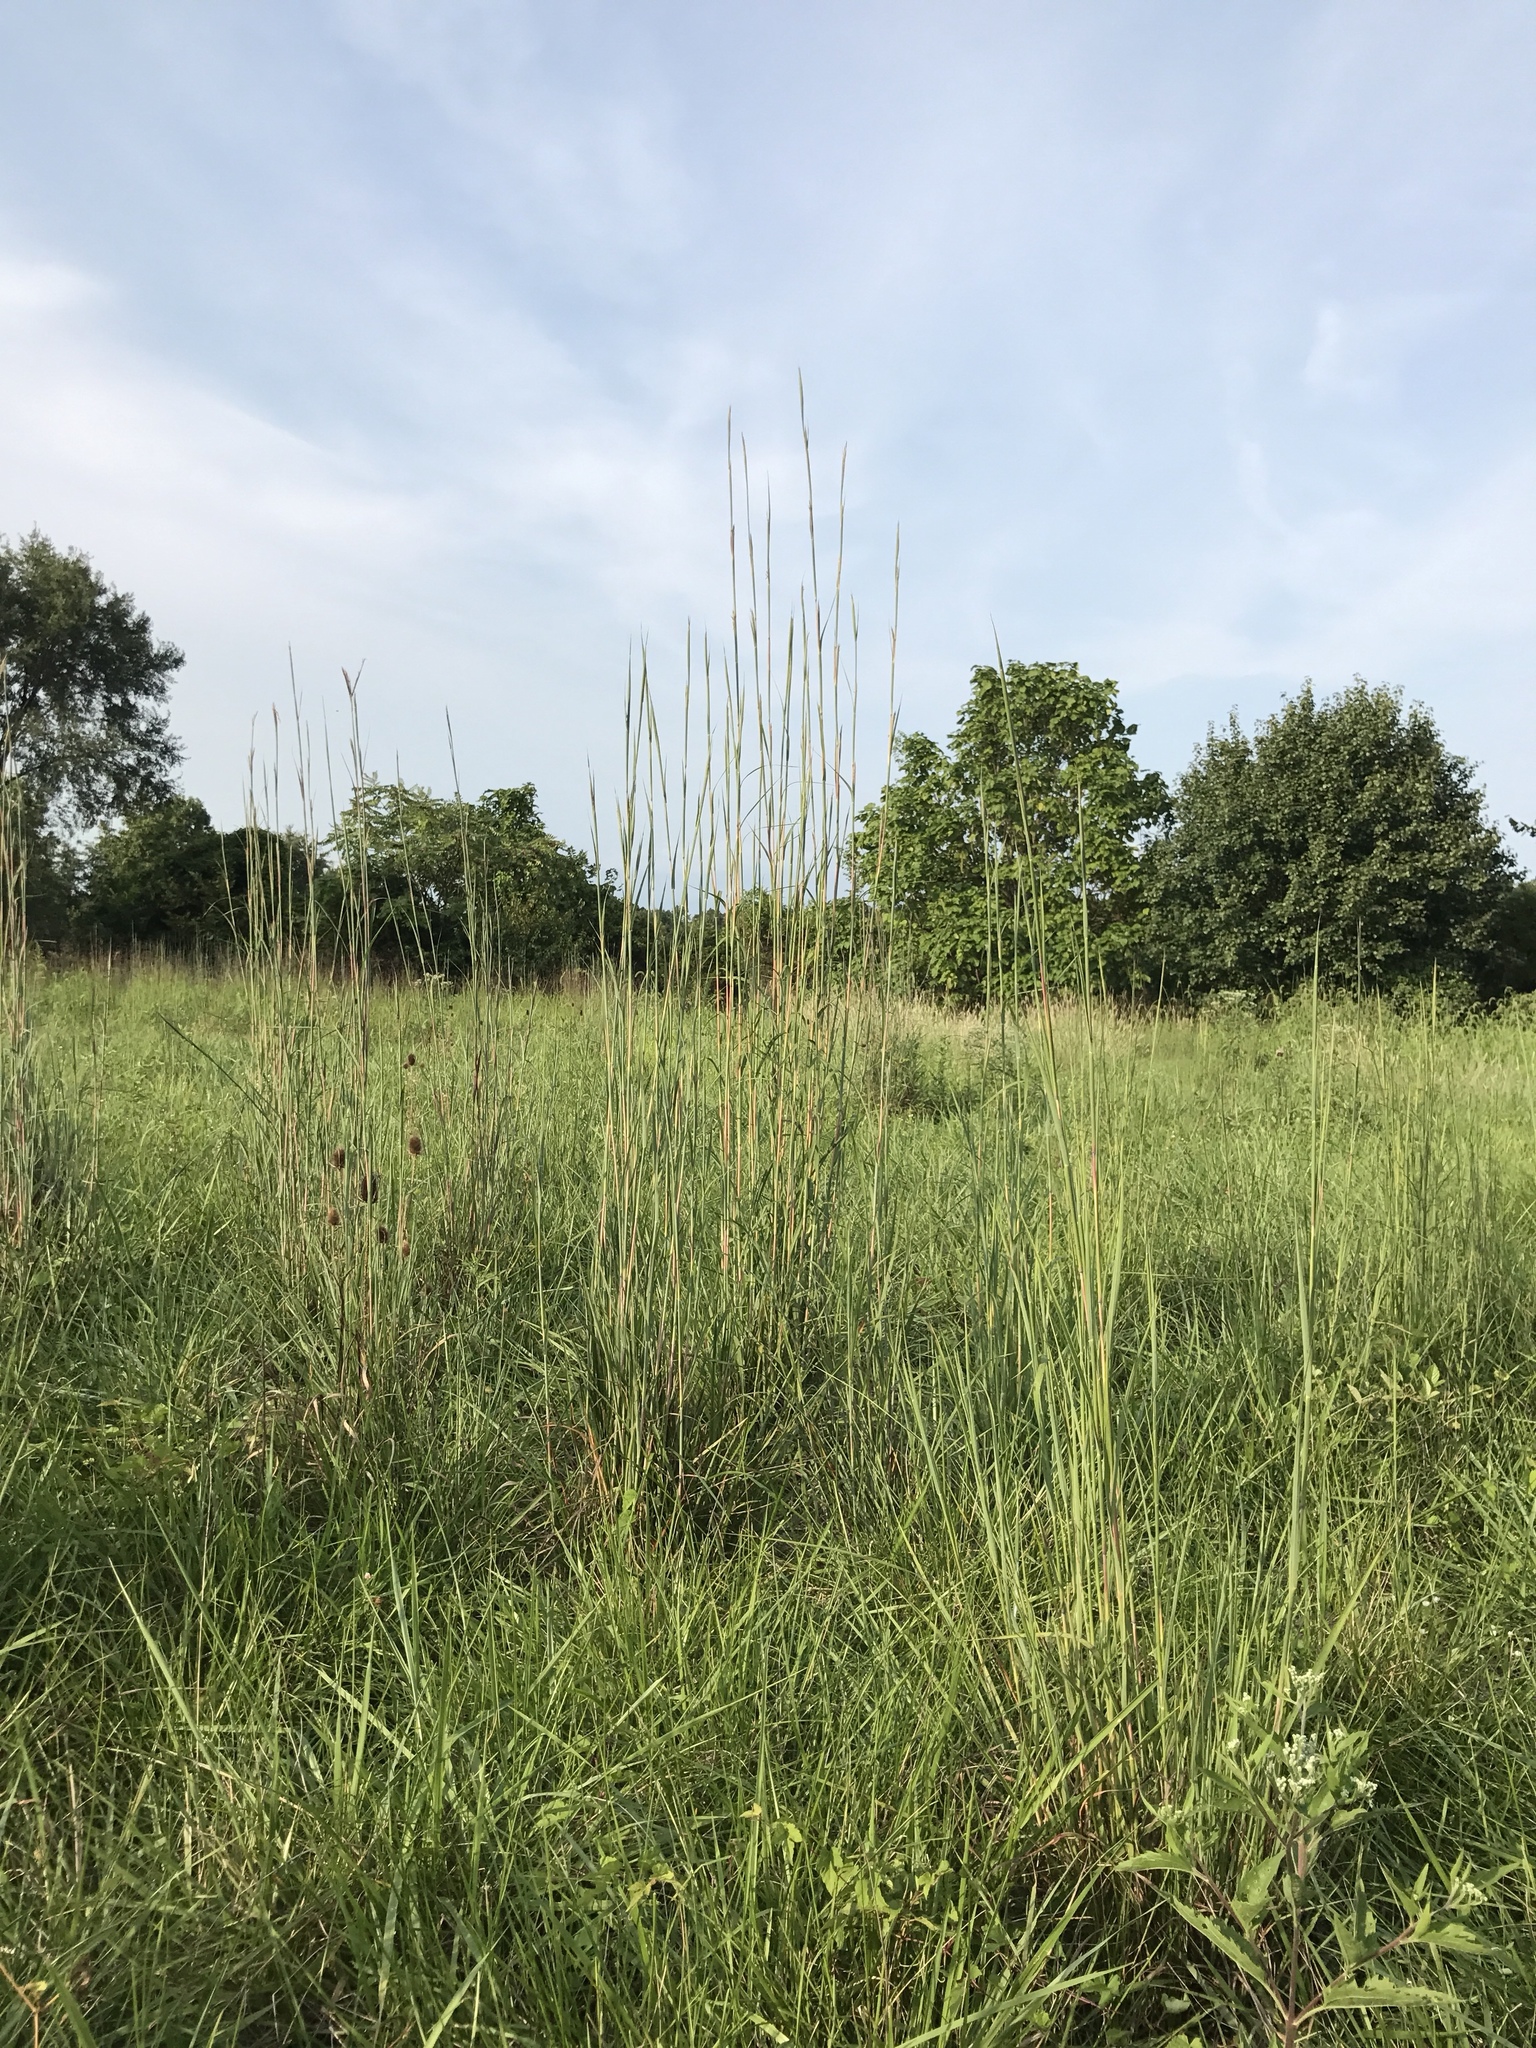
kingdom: Plantae
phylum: Tracheophyta
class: Liliopsida
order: Poales
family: Poaceae
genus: Andropogon
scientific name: Andropogon gerardi
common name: Big bluestem
